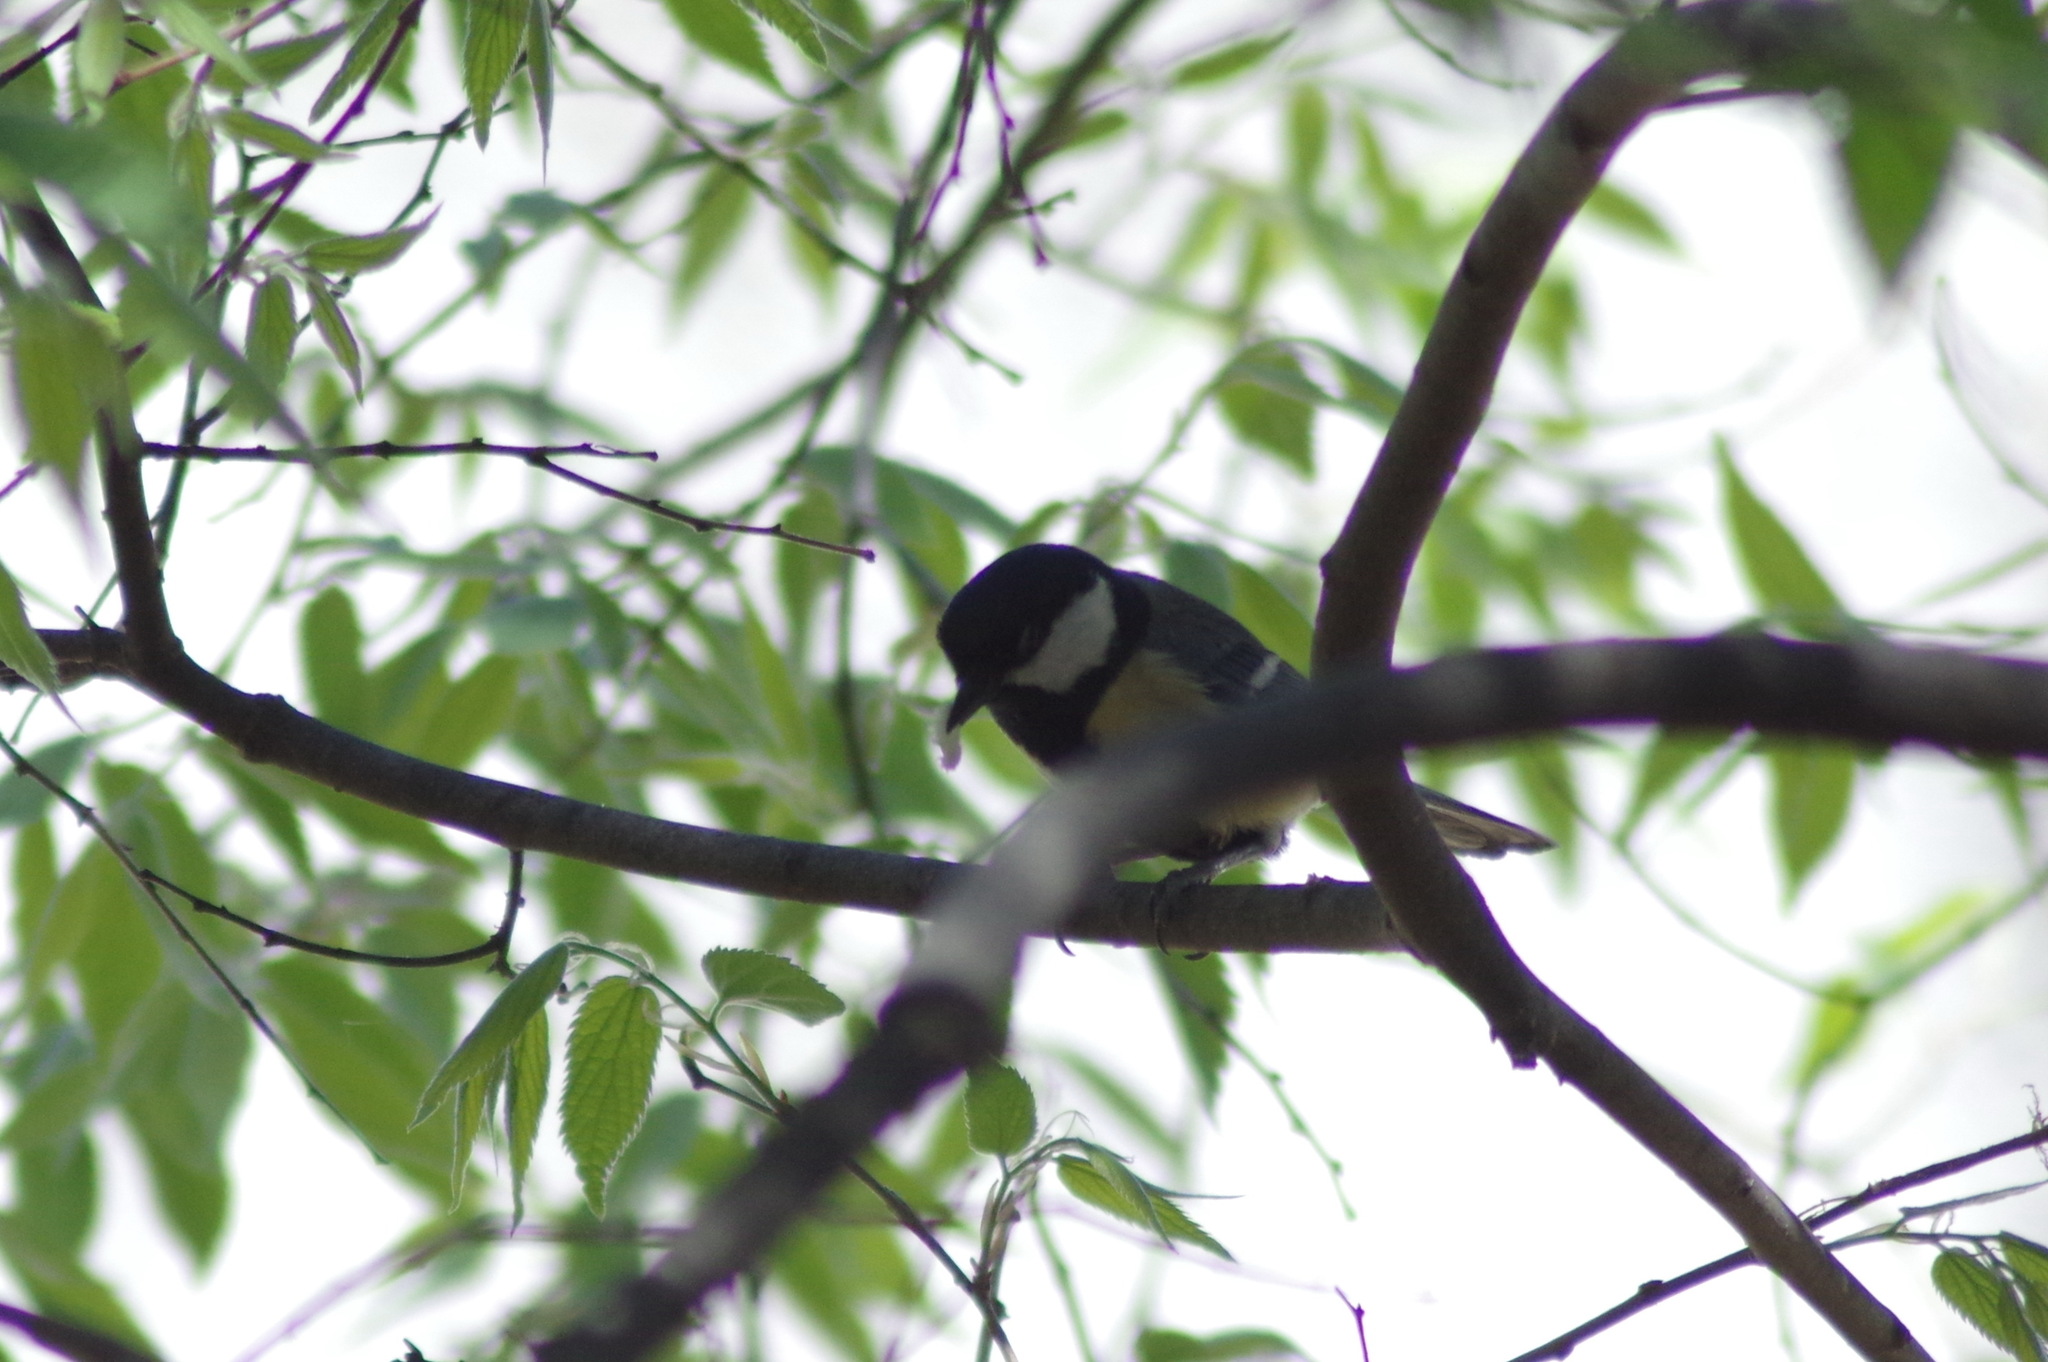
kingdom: Animalia
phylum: Chordata
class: Aves
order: Passeriformes
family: Paridae
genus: Parus
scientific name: Parus major
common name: Great tit
